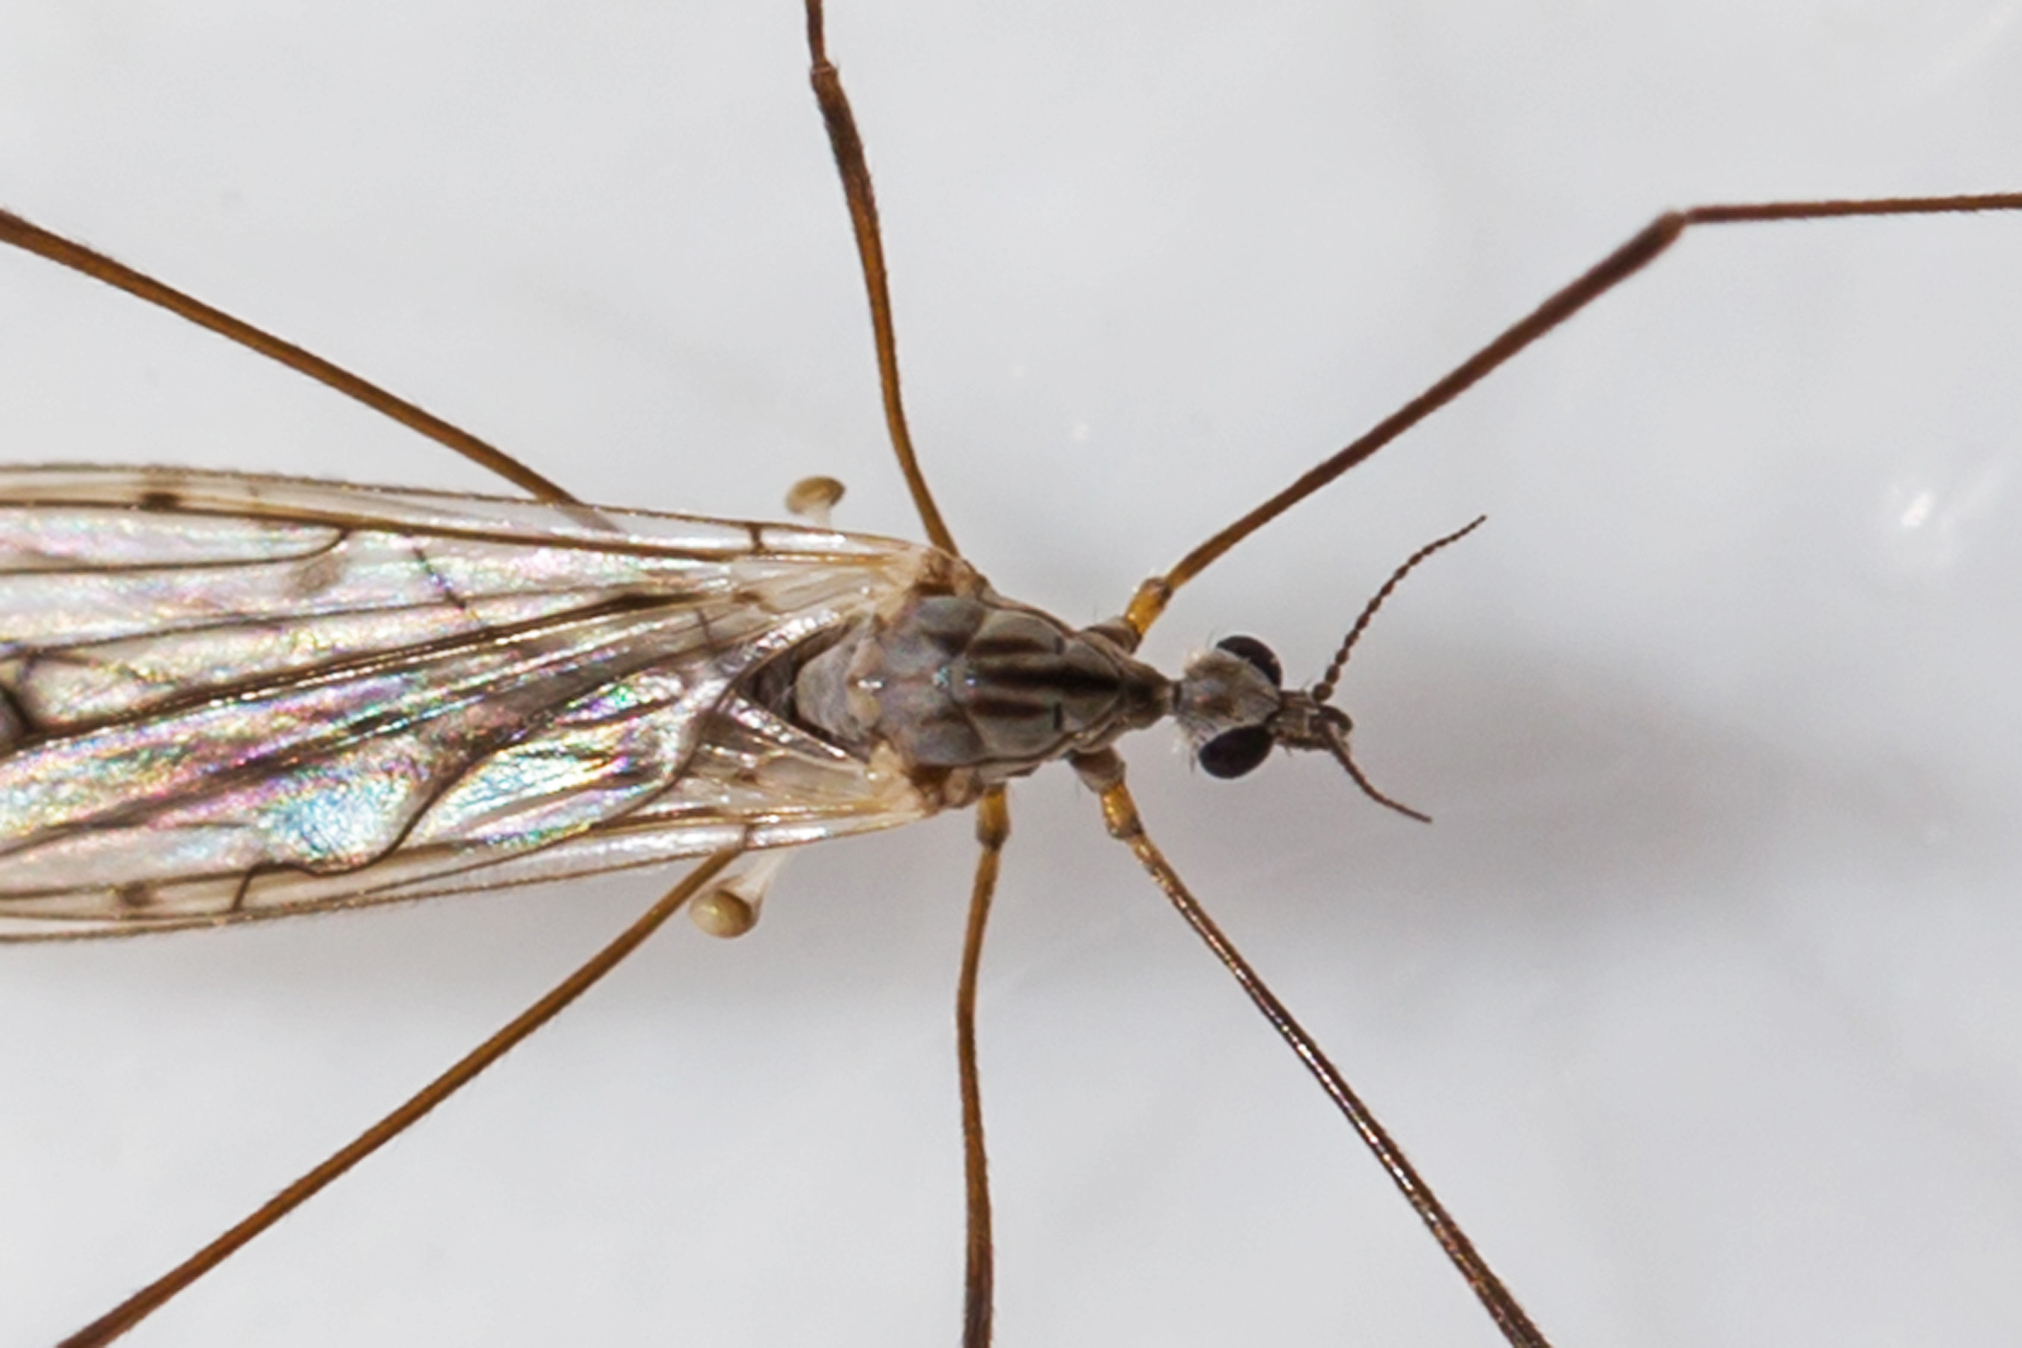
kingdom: Animalia
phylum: Arthropoda
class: Insecta
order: Diptera
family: Limoniidae
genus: Symplecta
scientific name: Symplecta cana
